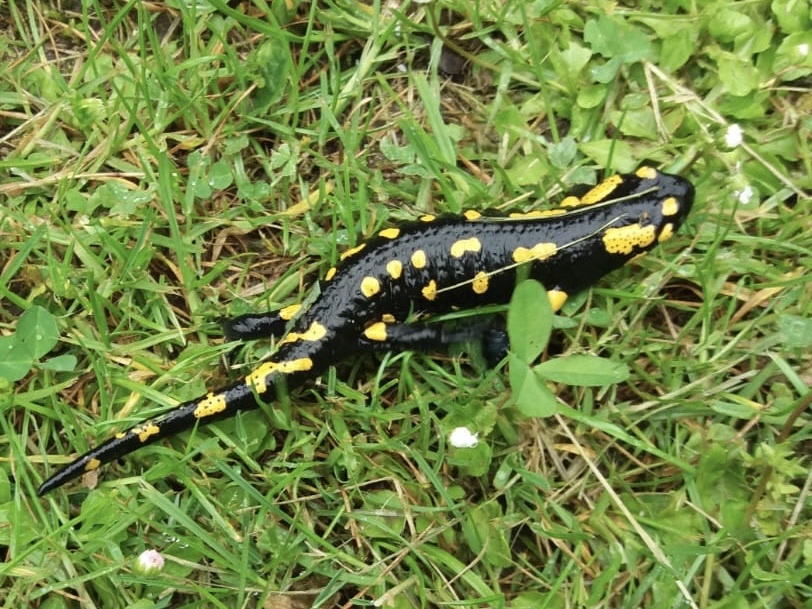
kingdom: Animalia
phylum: Chordata
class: Amphibia
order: Caudata
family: Salamandridae
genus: Salamandra
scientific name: Salamandra salamandra
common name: Fire salamander
